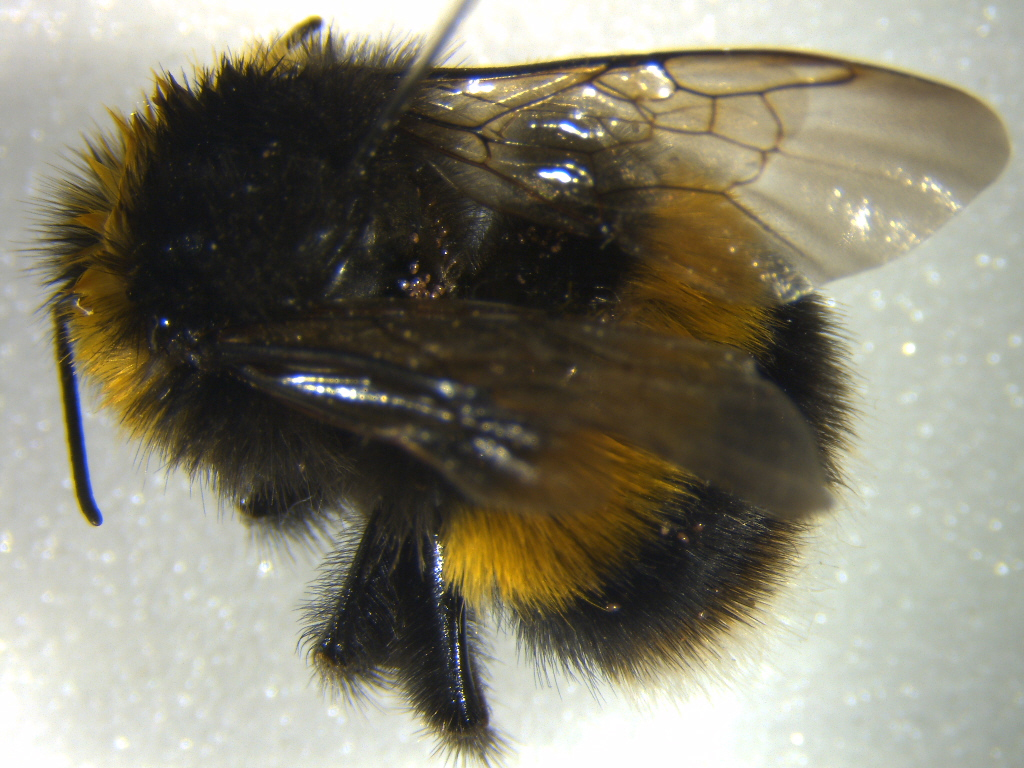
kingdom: Animalia
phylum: Arthropoda
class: Insecta
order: Hymenoptera
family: Apidae
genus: Bombus
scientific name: Bombus terrestris
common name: Buff-tailed bumblebee
